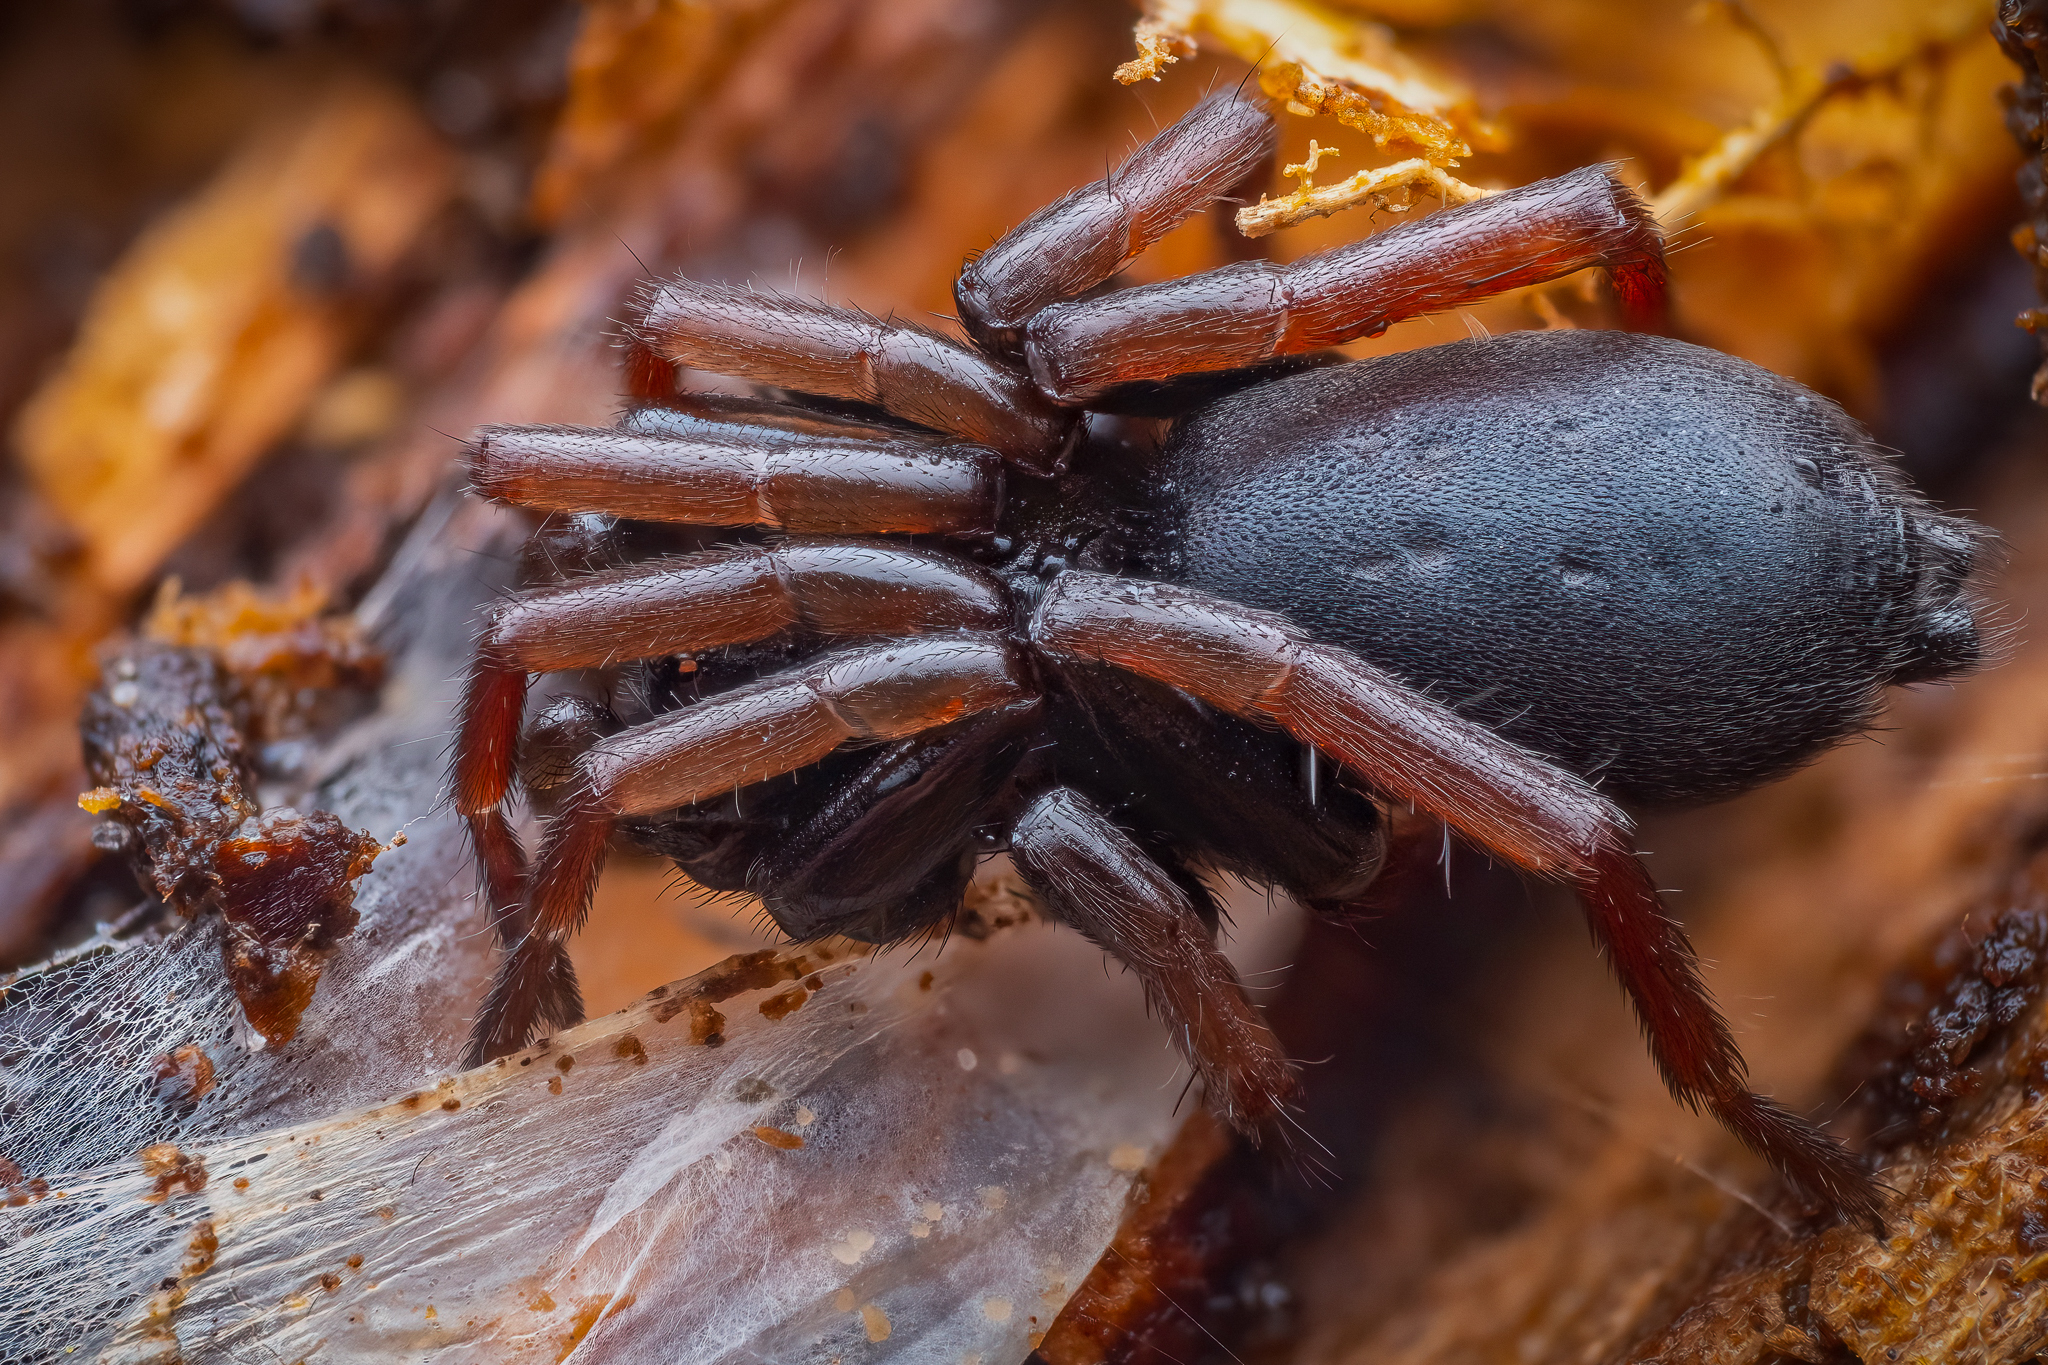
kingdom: Animalia
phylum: Arthropoda
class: Arachnida
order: Araneae
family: Gnaphosidae
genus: Trachyzelotes
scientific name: Trachyzelotes pedestris
